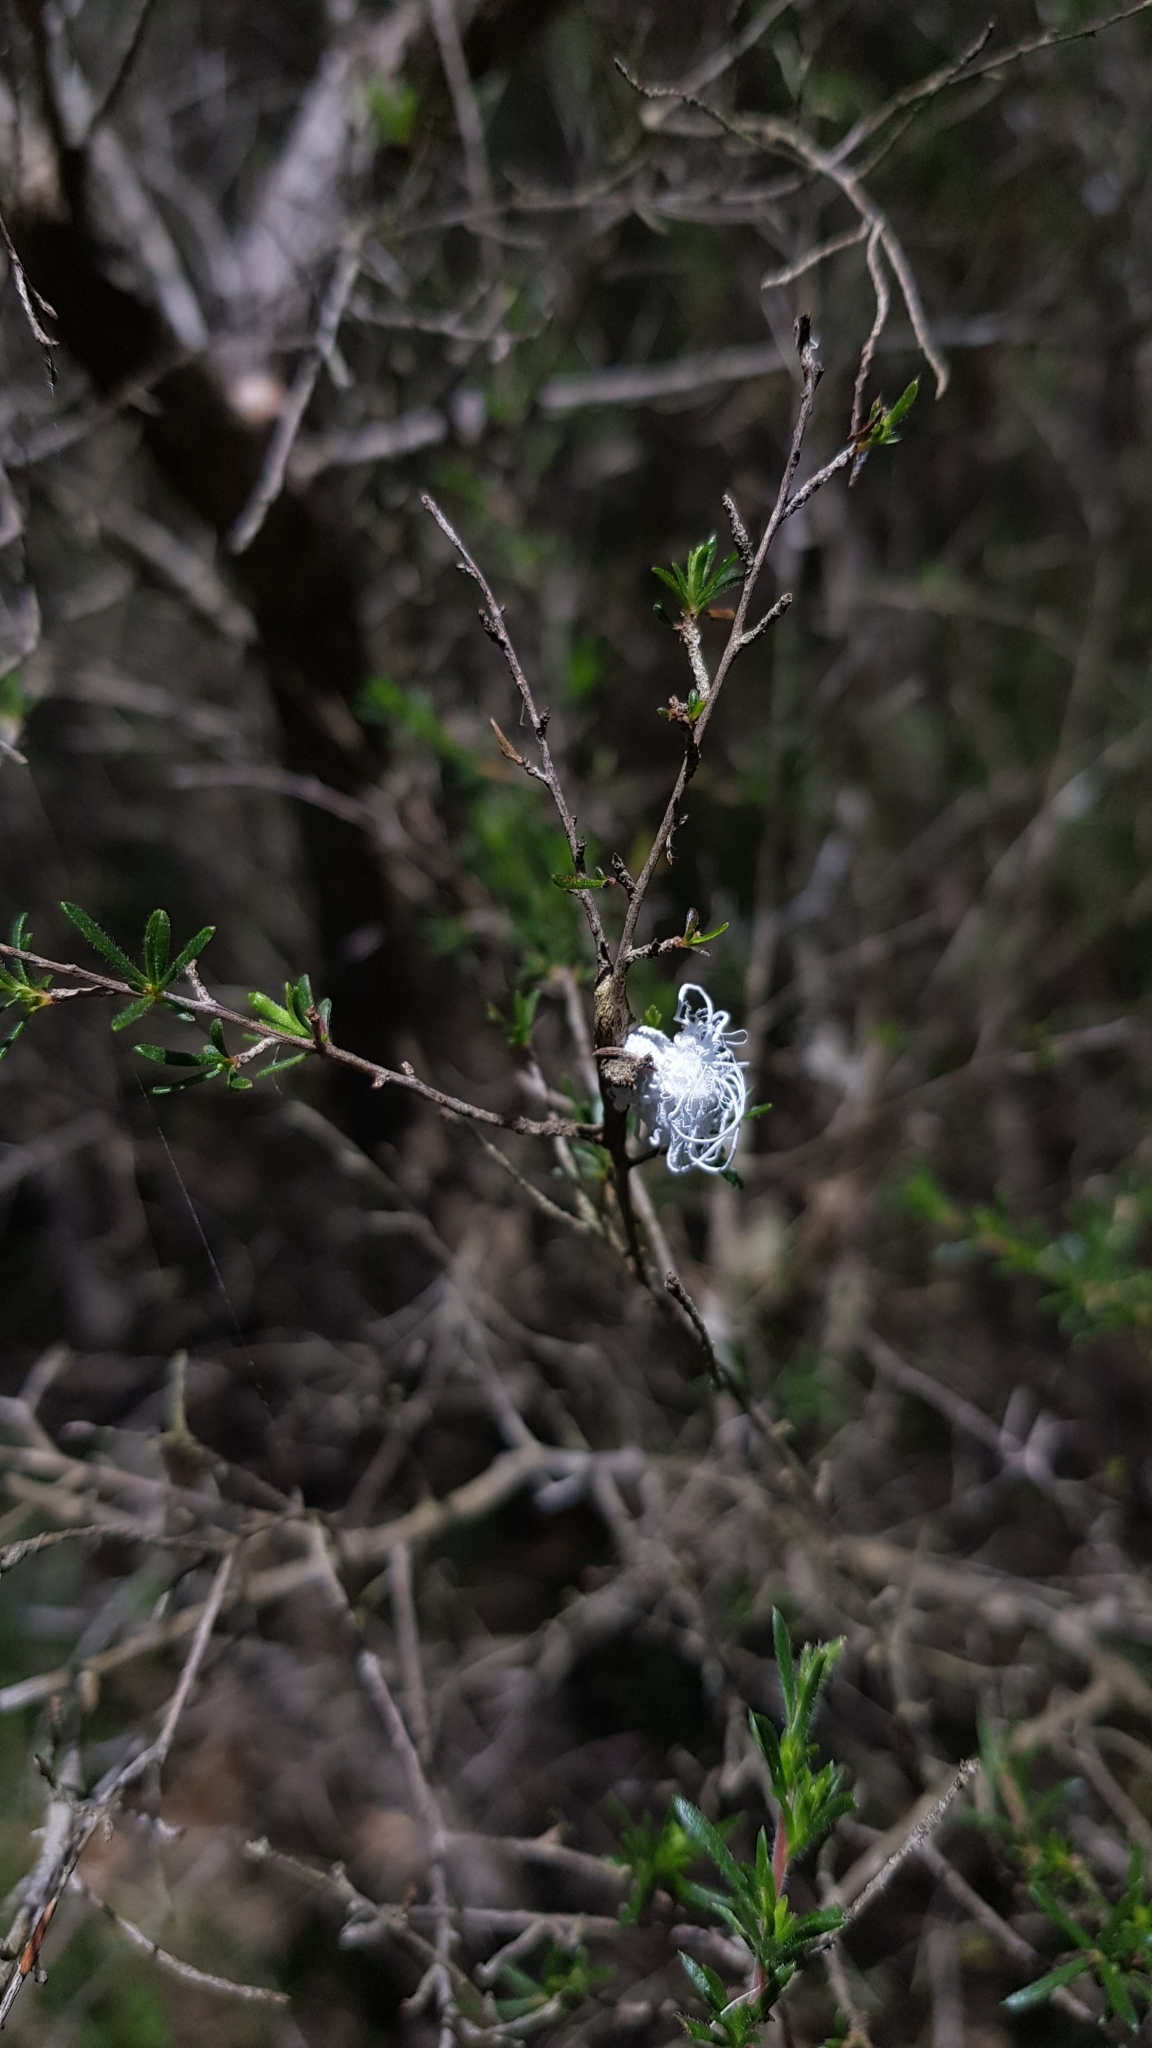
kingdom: Animalia
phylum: Arthropoda
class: Insecta
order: Hemiptera
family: Asterolecaniidae
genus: Callococcus
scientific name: Callococcus
